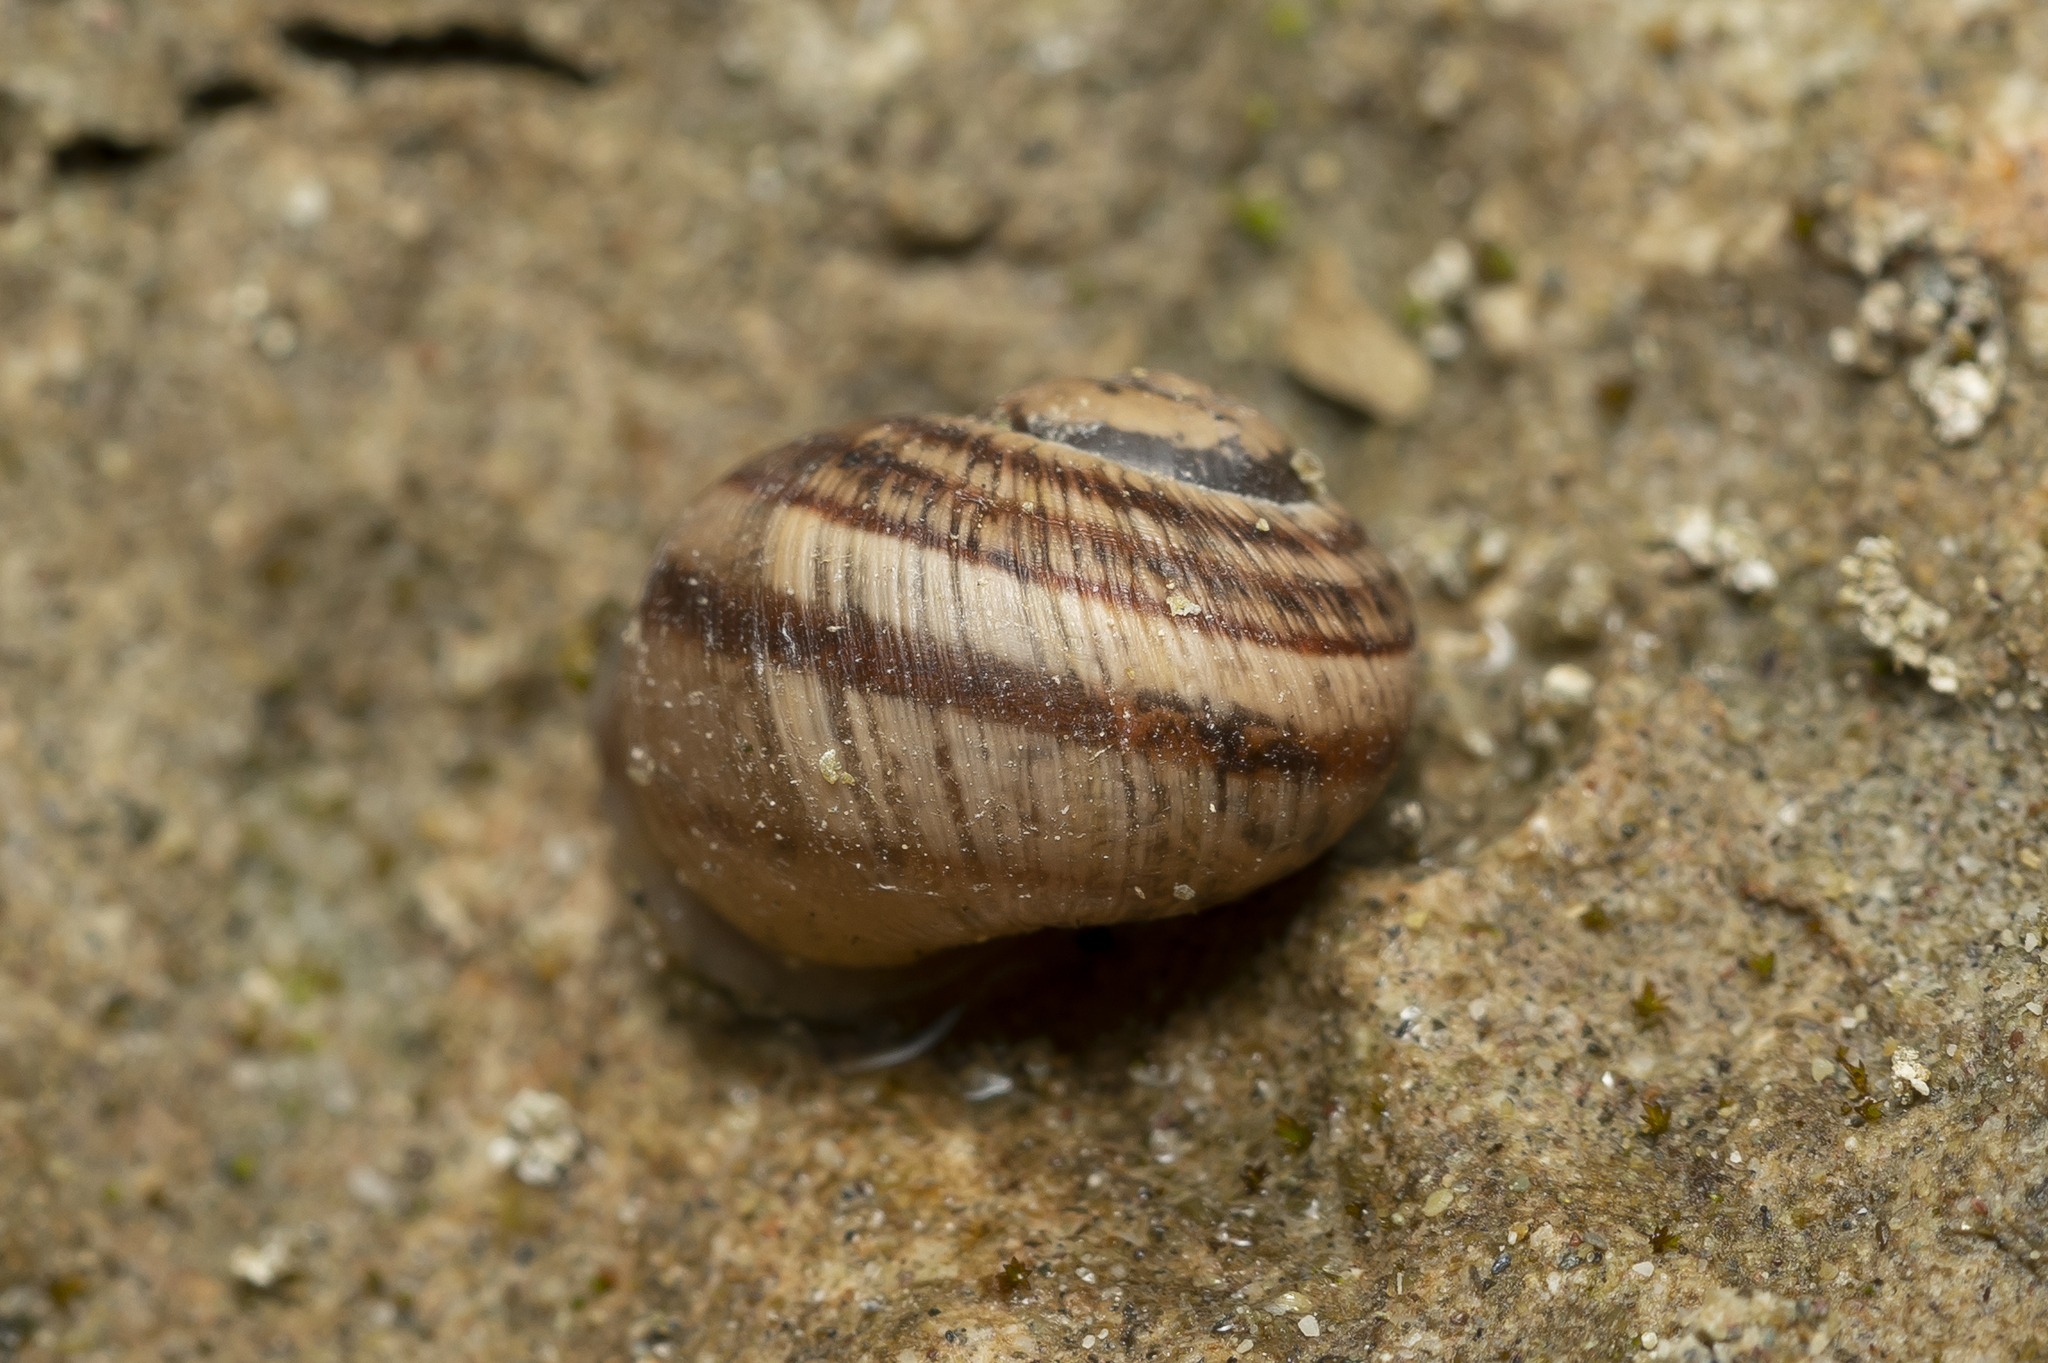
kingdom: Animalia
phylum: Mollusca
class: Gastropoda
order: Stylommatophora
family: Helicidae
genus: Helix
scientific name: Helix nucula
